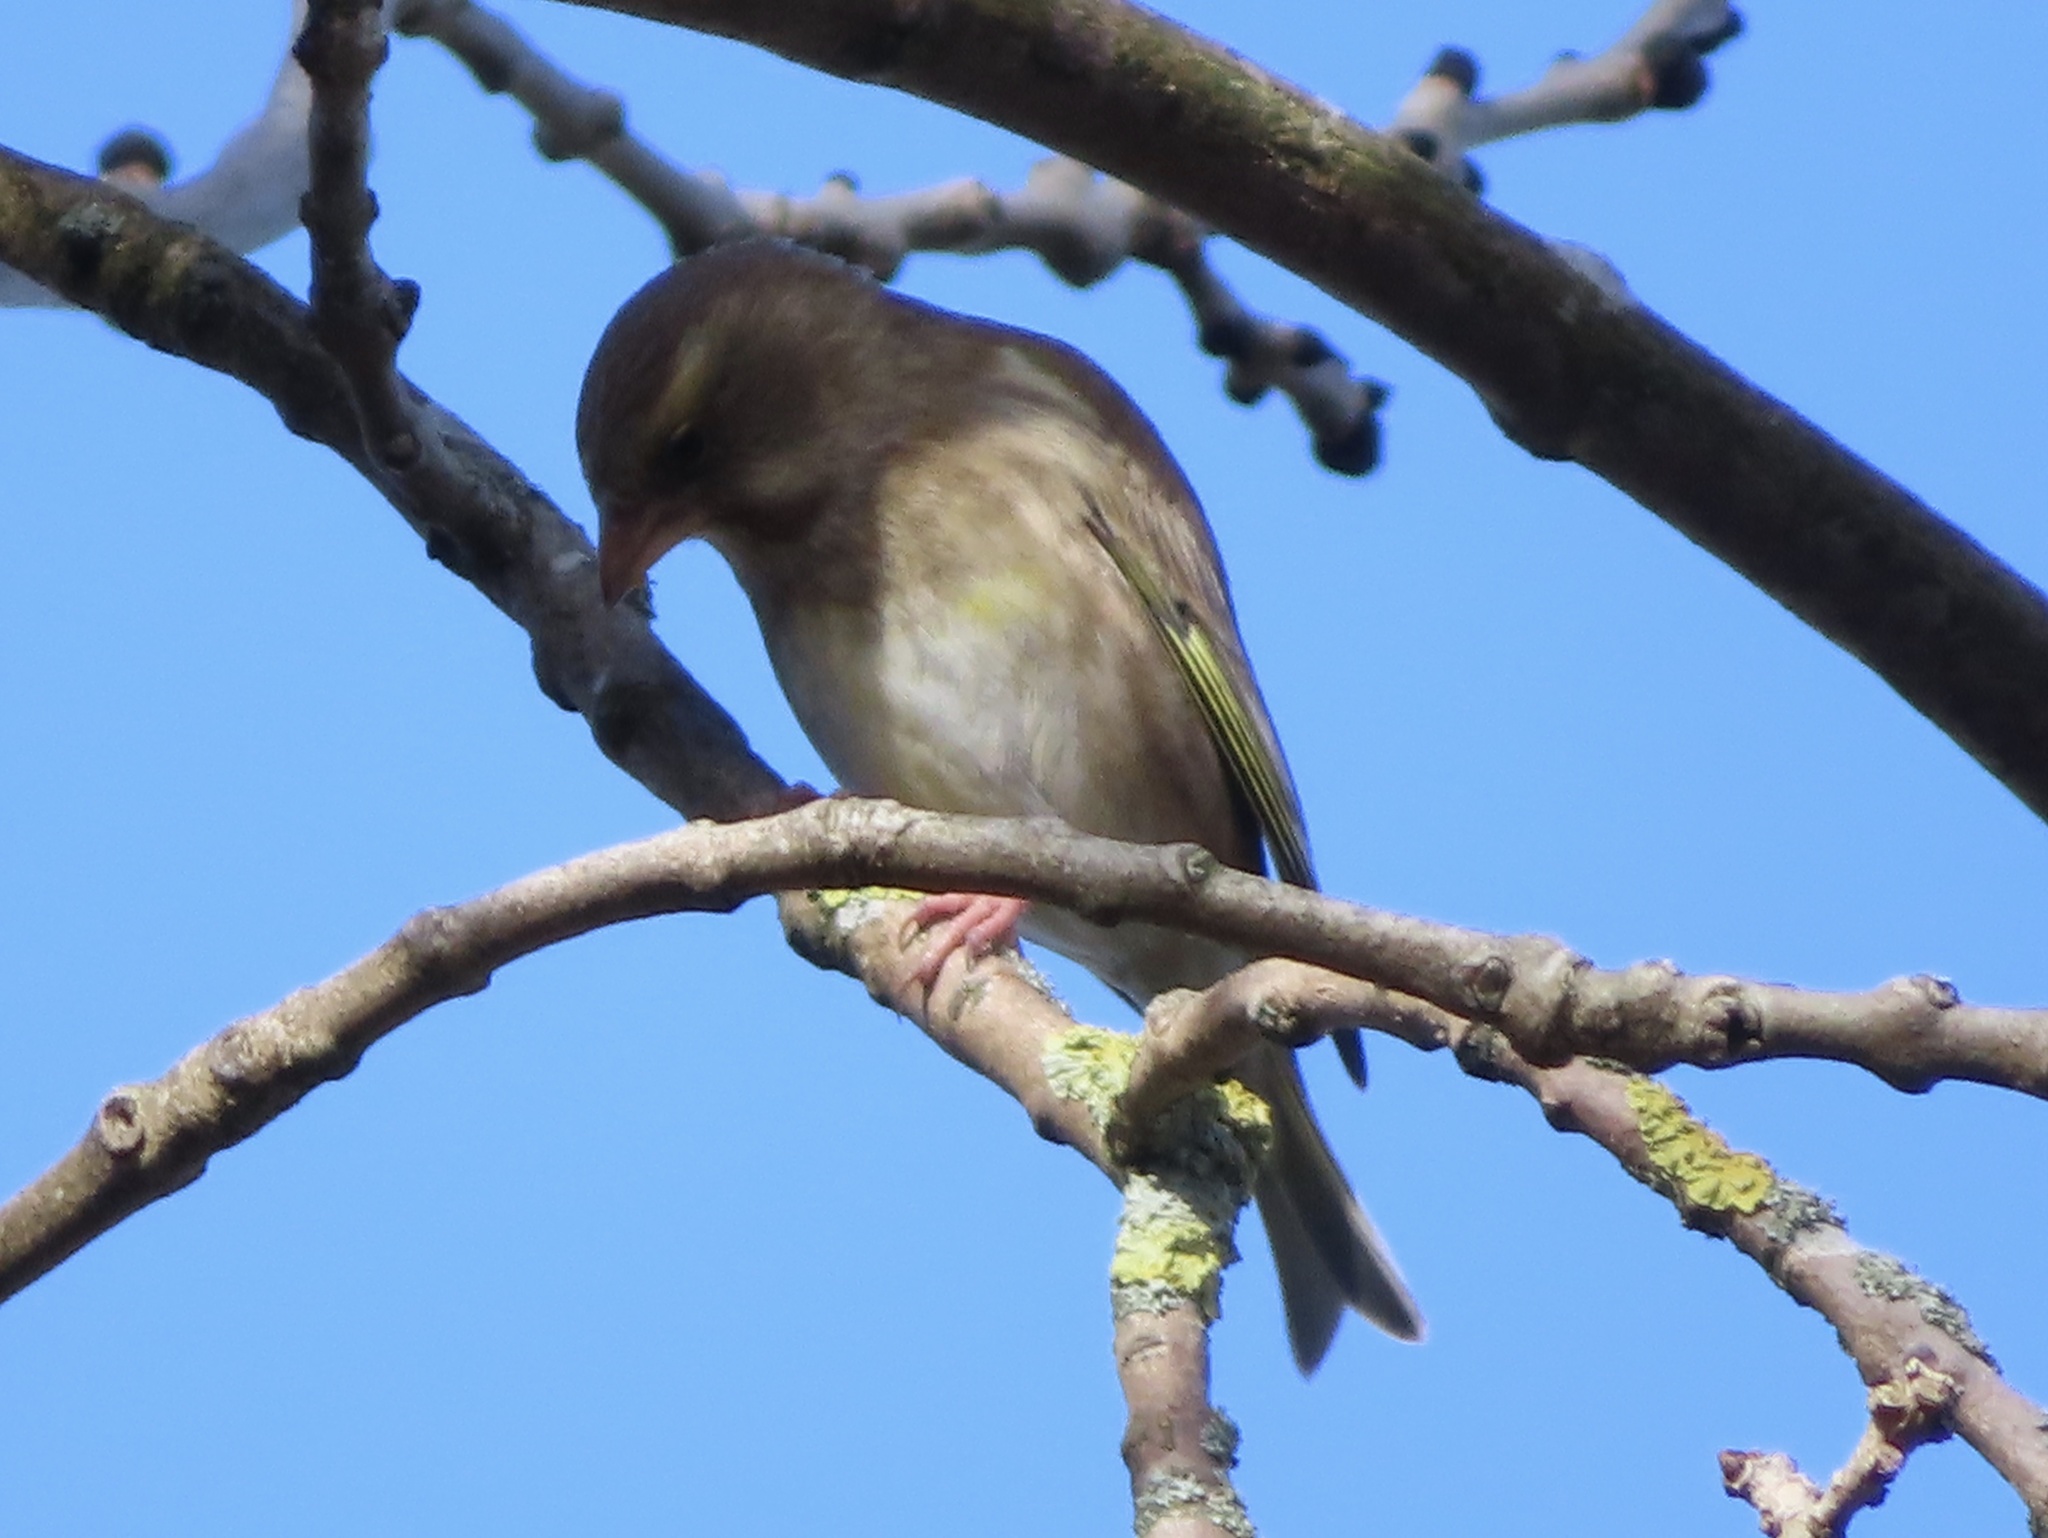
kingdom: Plantae
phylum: Tracheophyta
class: Liliopsida
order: Poales
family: Poaceae
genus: Chloris
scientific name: Chloris chloris
